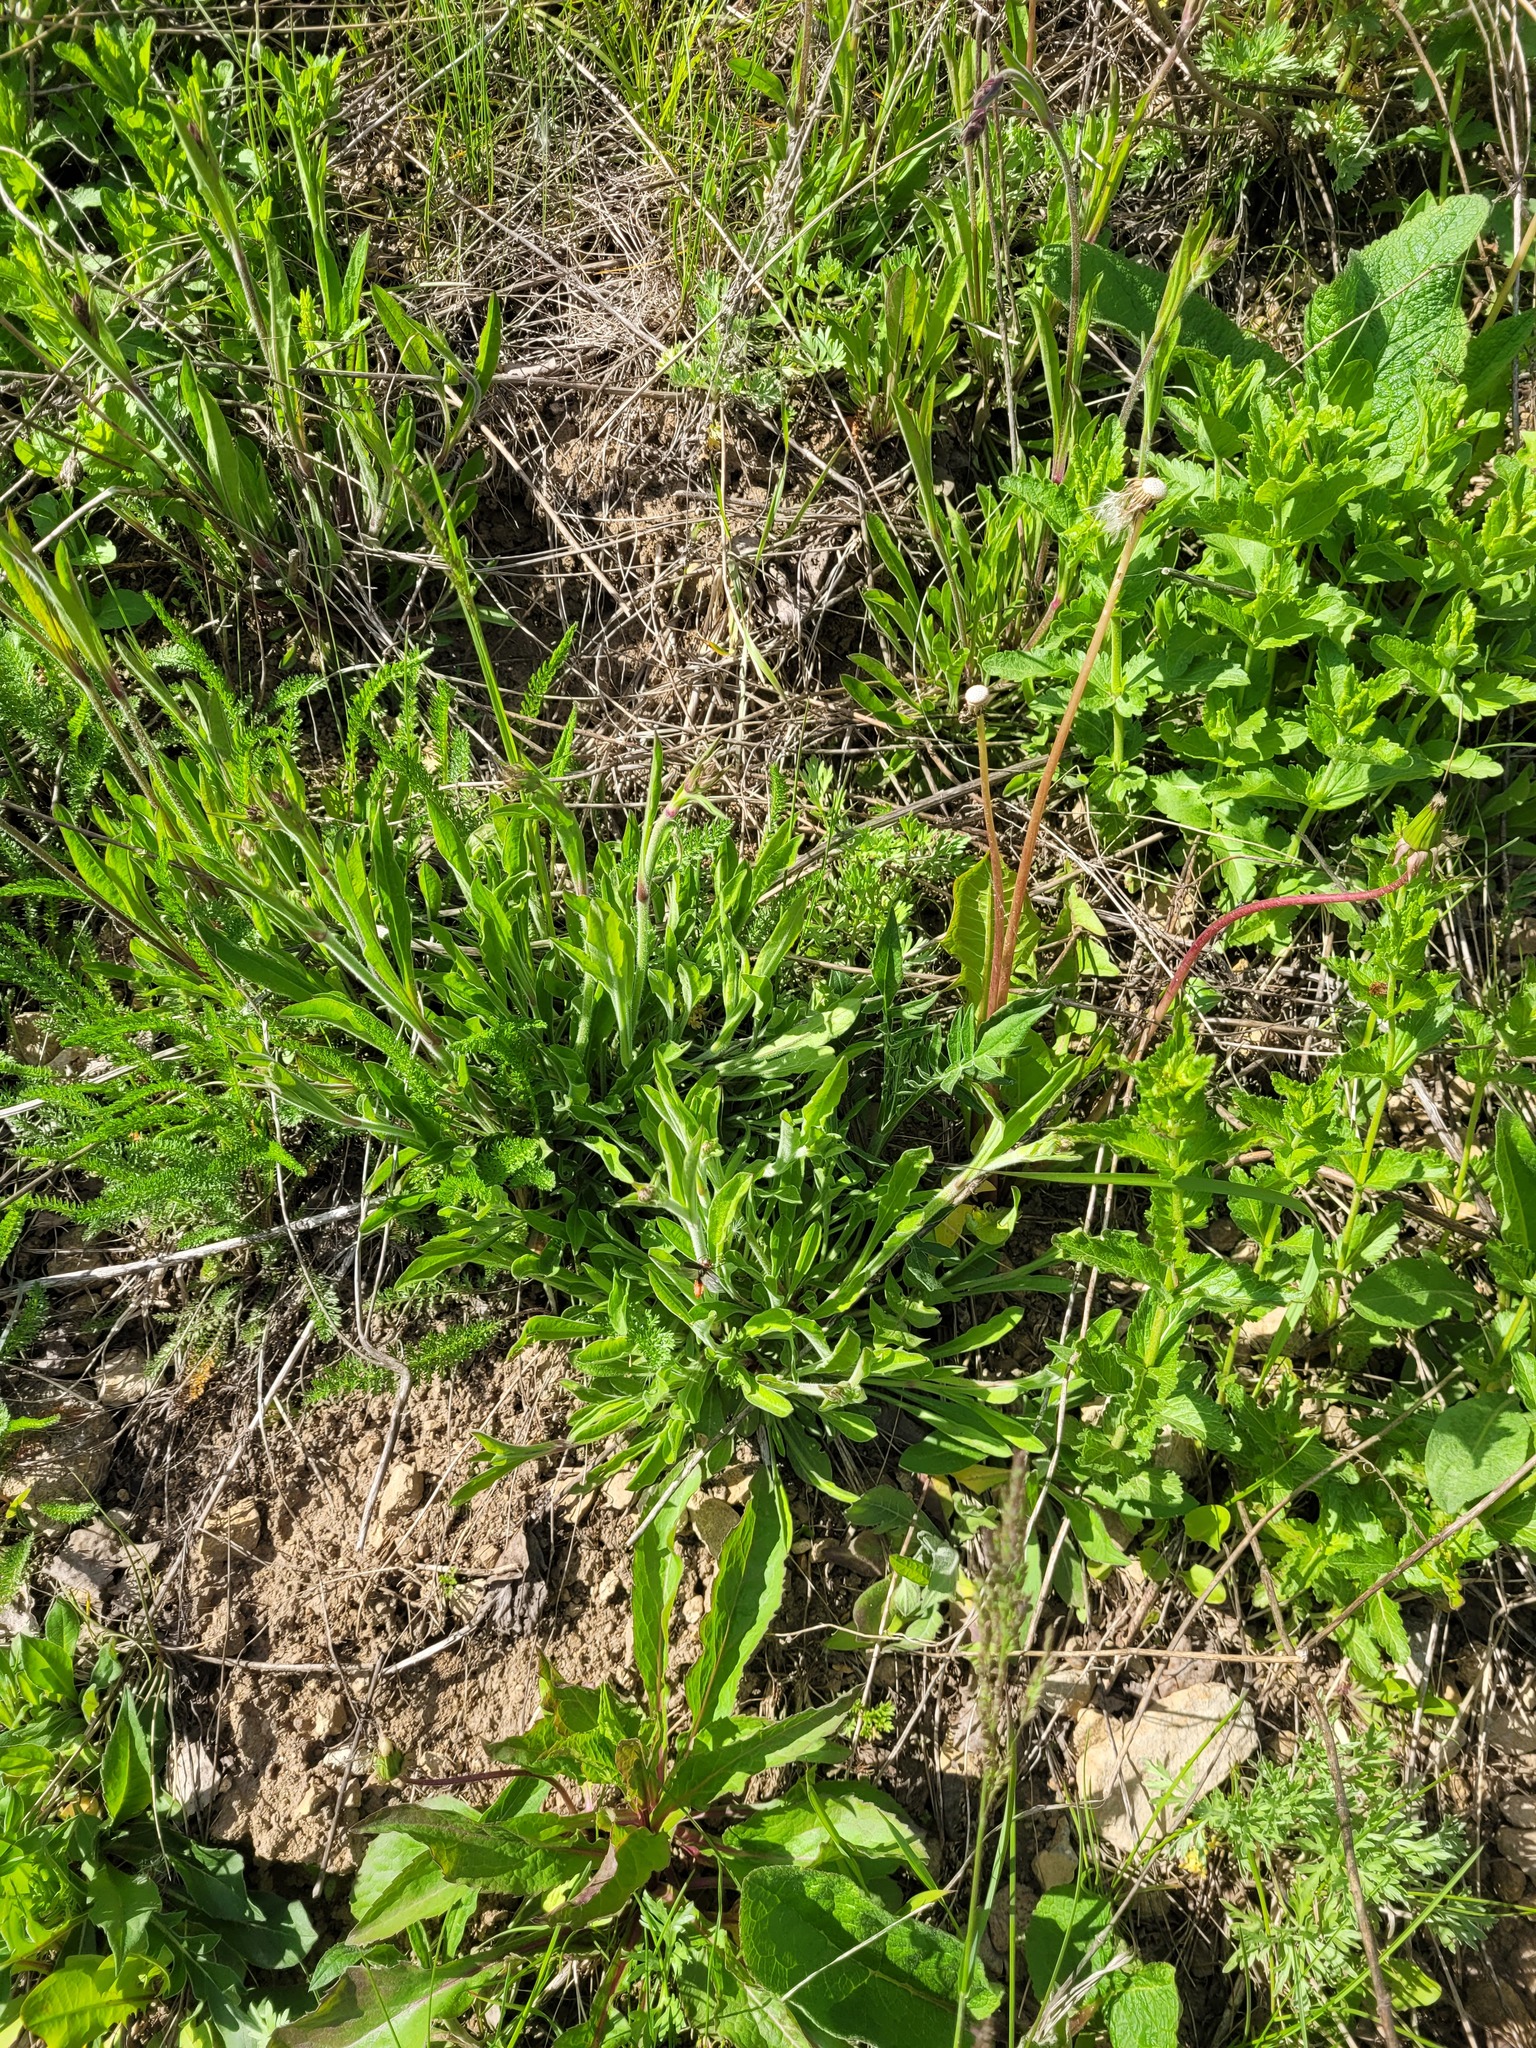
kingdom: Plantae
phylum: Tracheophyta
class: Magnoliopsida
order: Caryophyllales
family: Caryophyllaceae
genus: Silene
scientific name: Silene nutans
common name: Nottingham catchfly
